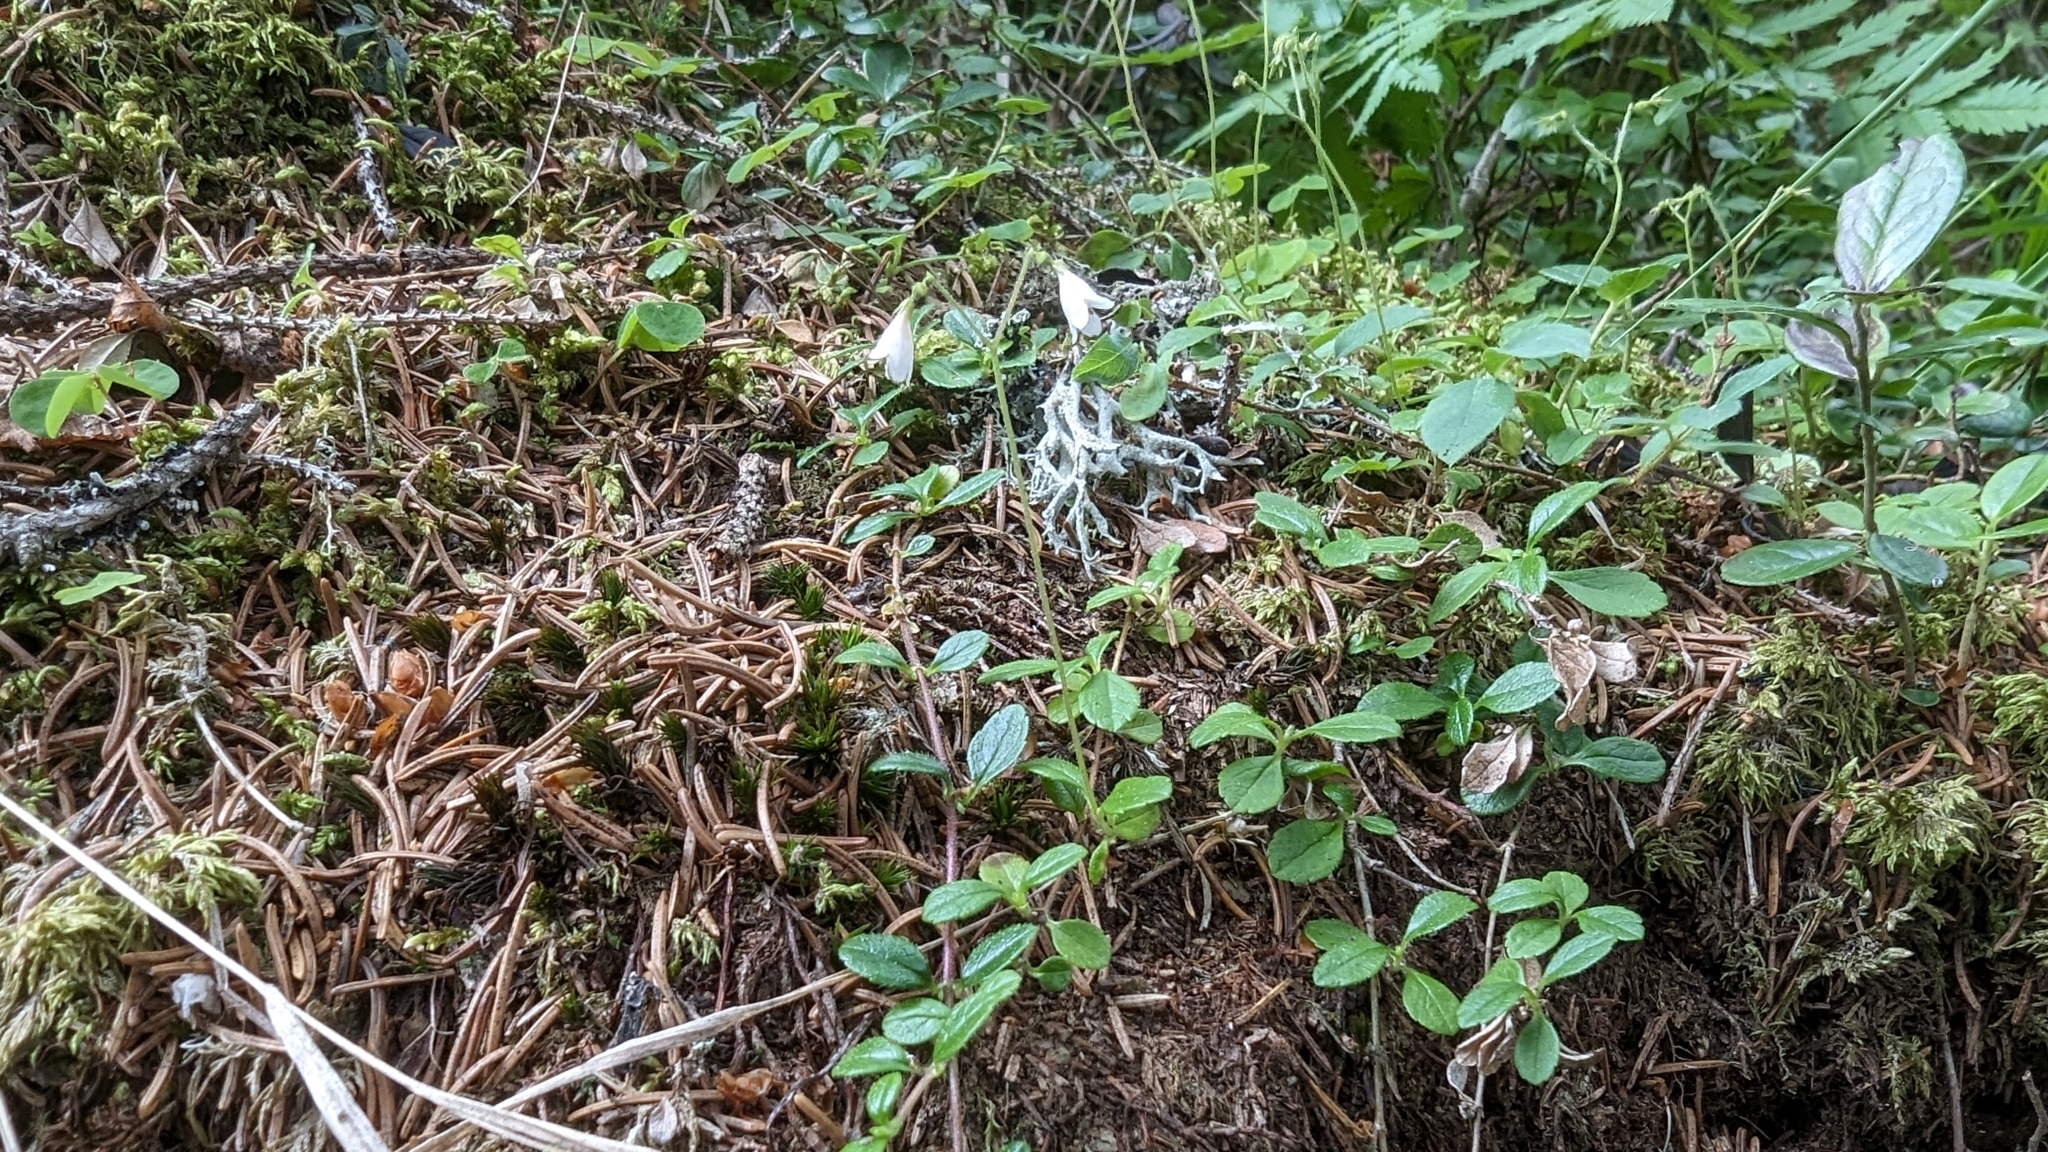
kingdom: Plantae
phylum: Tracheophyta
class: Magnoliopsida
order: Dipsacales
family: Caprifoliaceae
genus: Linnaea
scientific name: Linnaea borealis
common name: Twinflower
